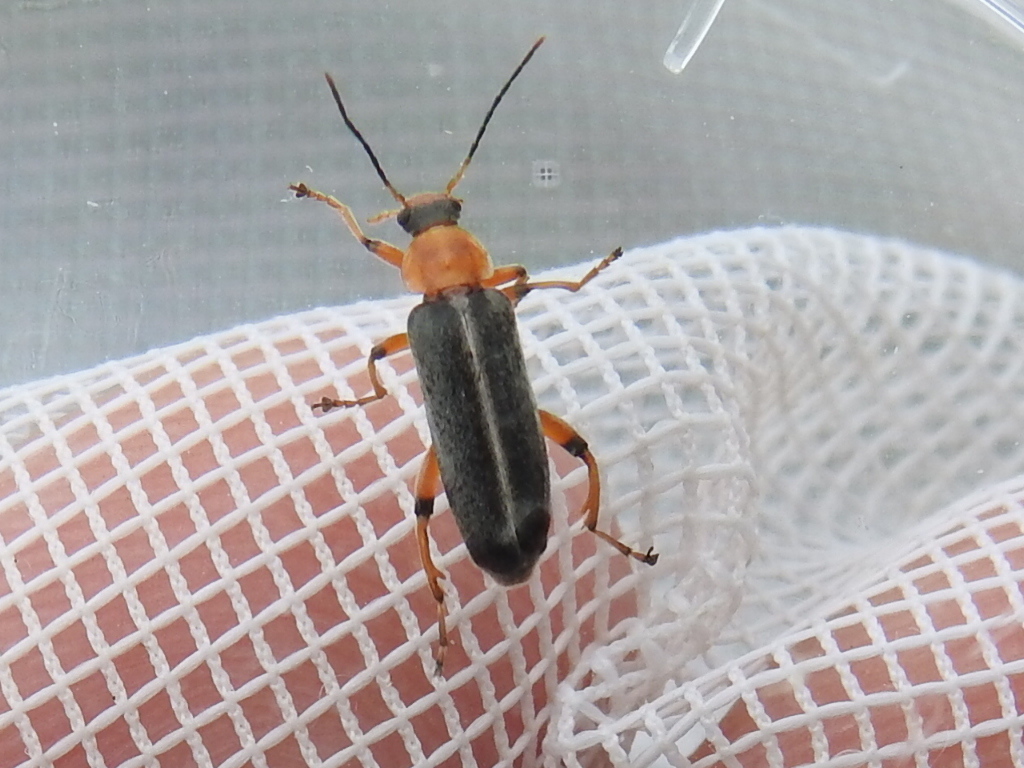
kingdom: Animalia
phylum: Arthropoda
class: Insecta
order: Coleoptera
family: Melandryidae
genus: Osphya
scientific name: Osphya varians
